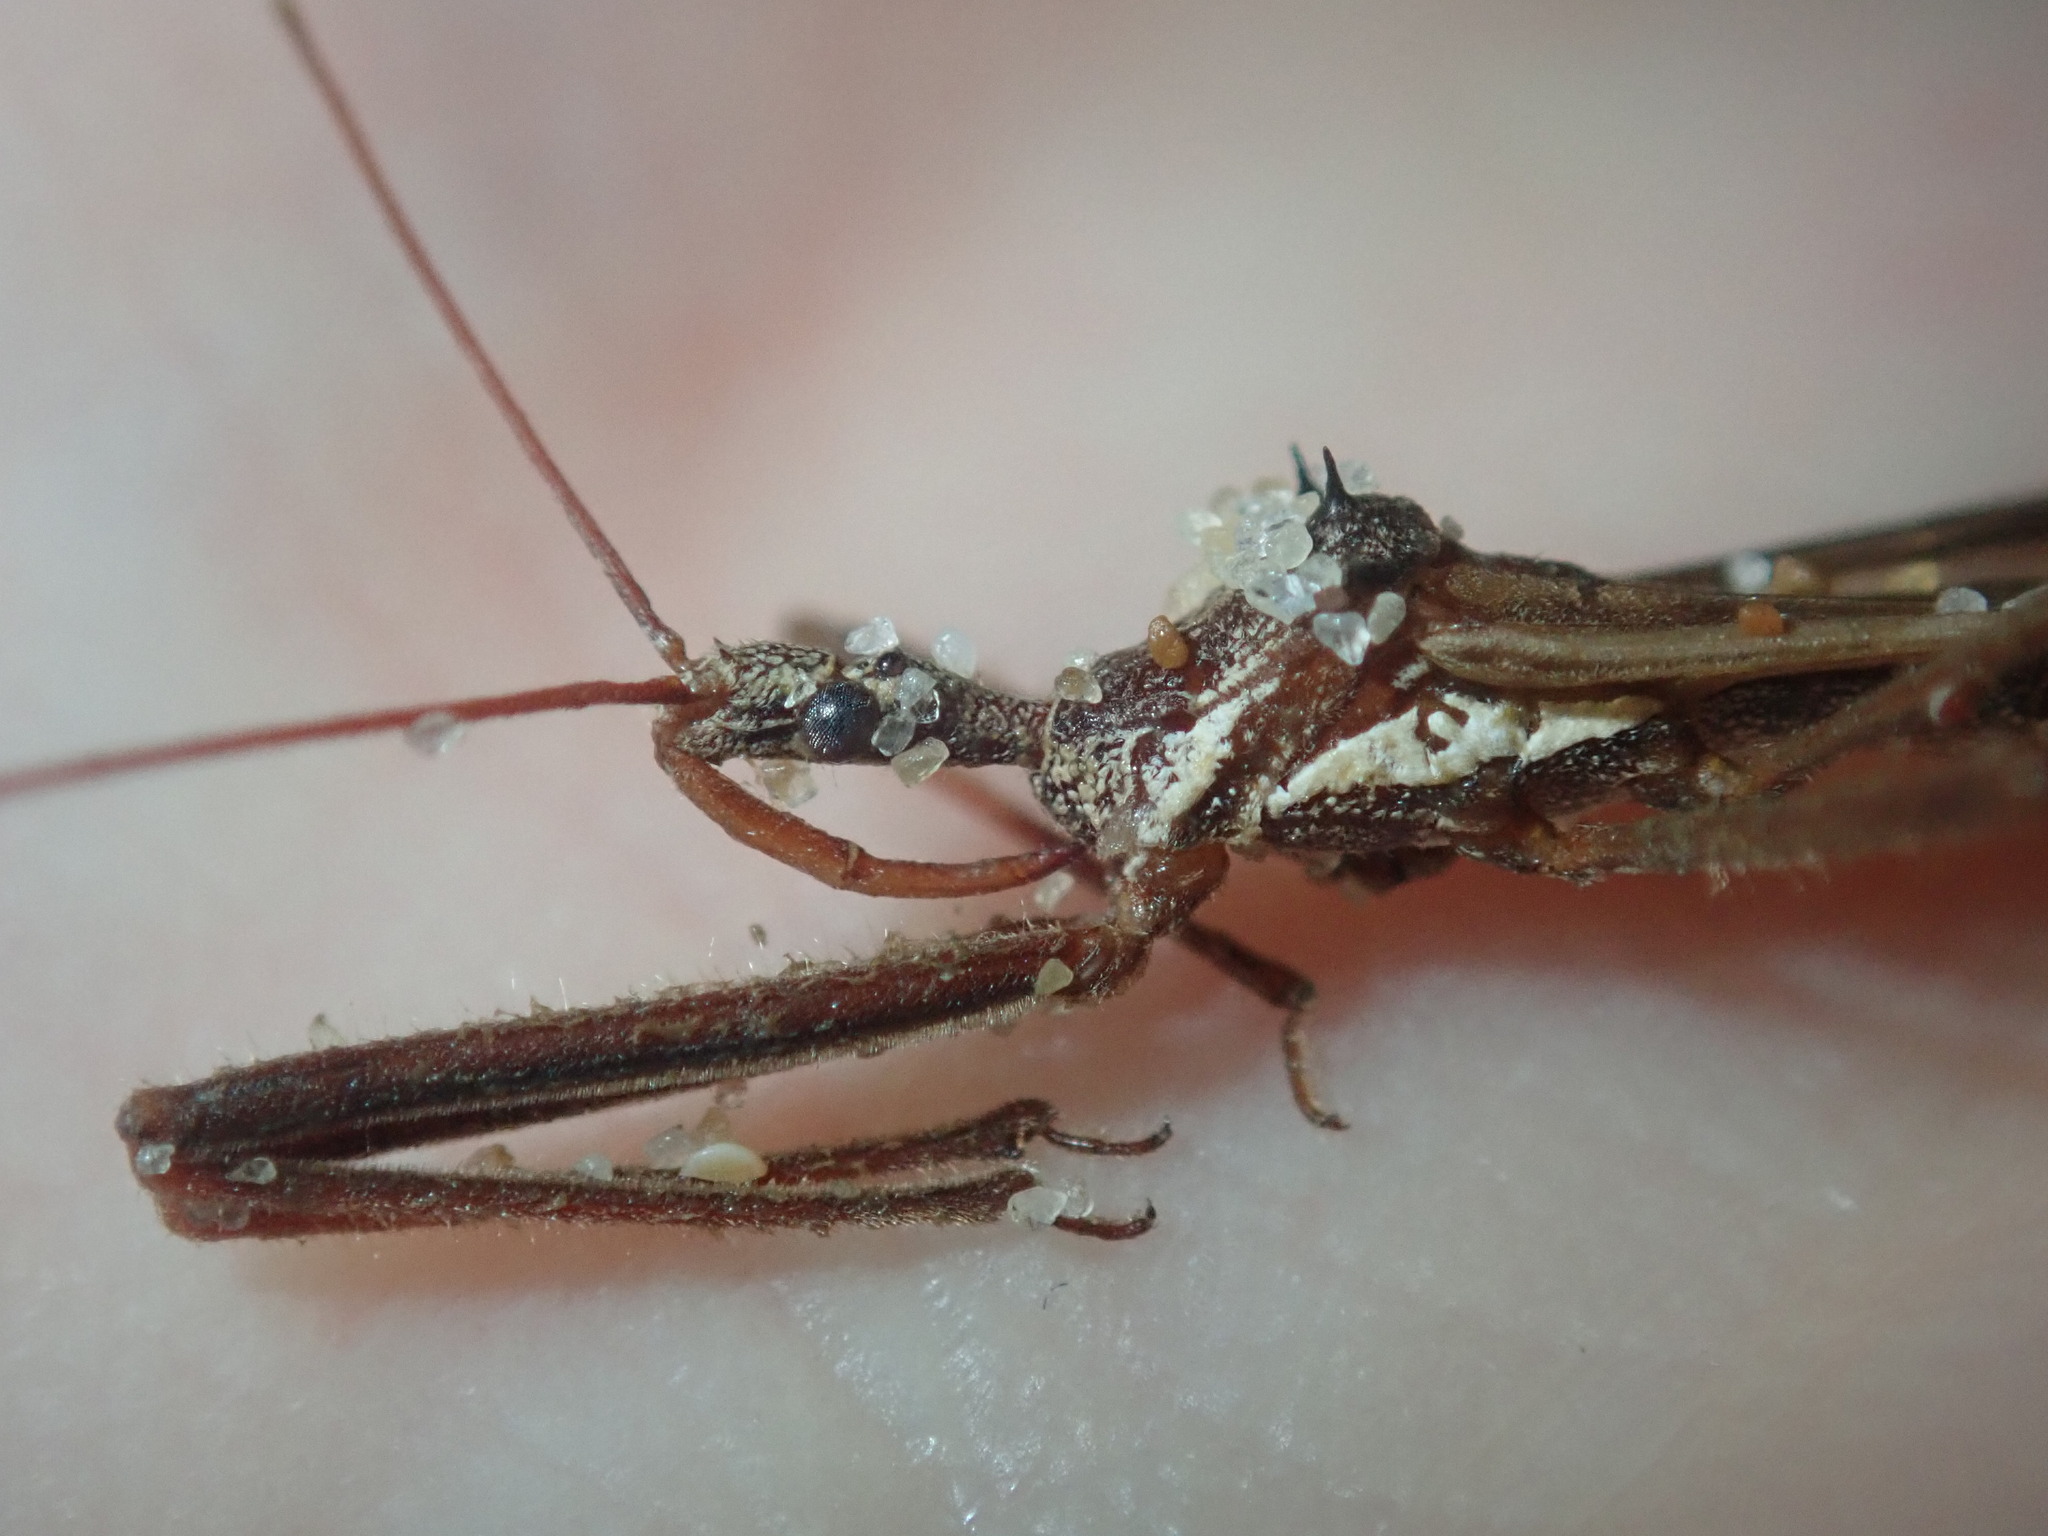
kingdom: Animalia
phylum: Arthropoda
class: Insecta
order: Hemiptera
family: Reduviidae
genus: Australcmena
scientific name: Australcmena lineativentris
